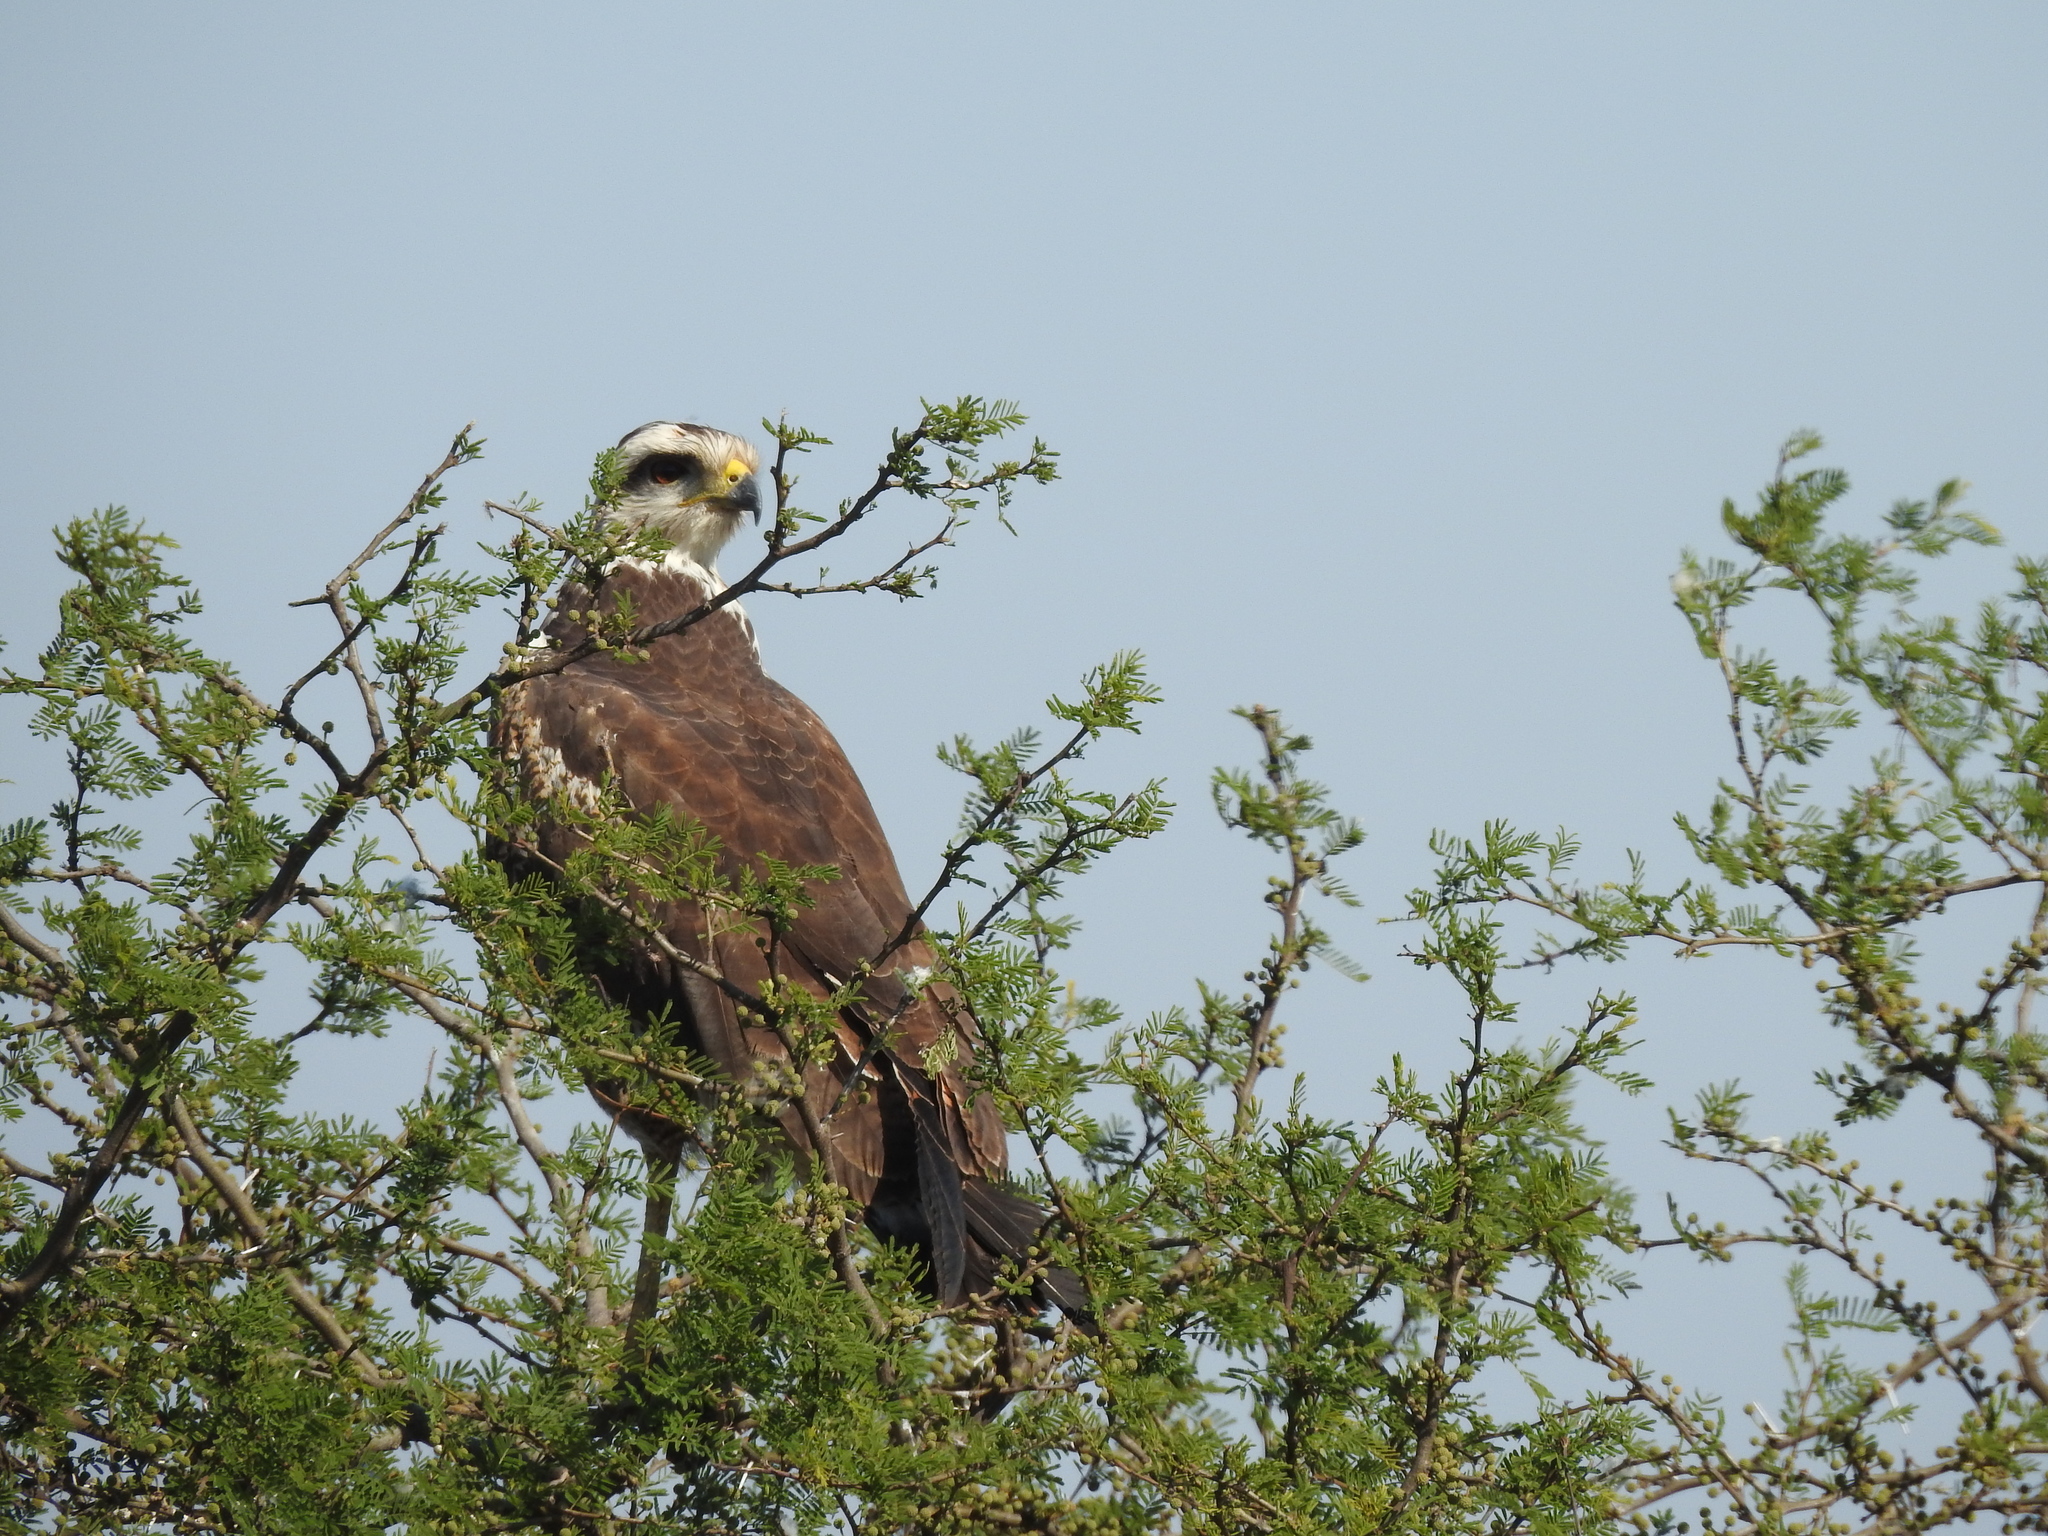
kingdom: Animalia
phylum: Chordata
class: Aves
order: Accipitriformes
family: Accipitridae
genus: Buteogallus
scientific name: Buteogallus meridionalis
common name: Savanna hawk
